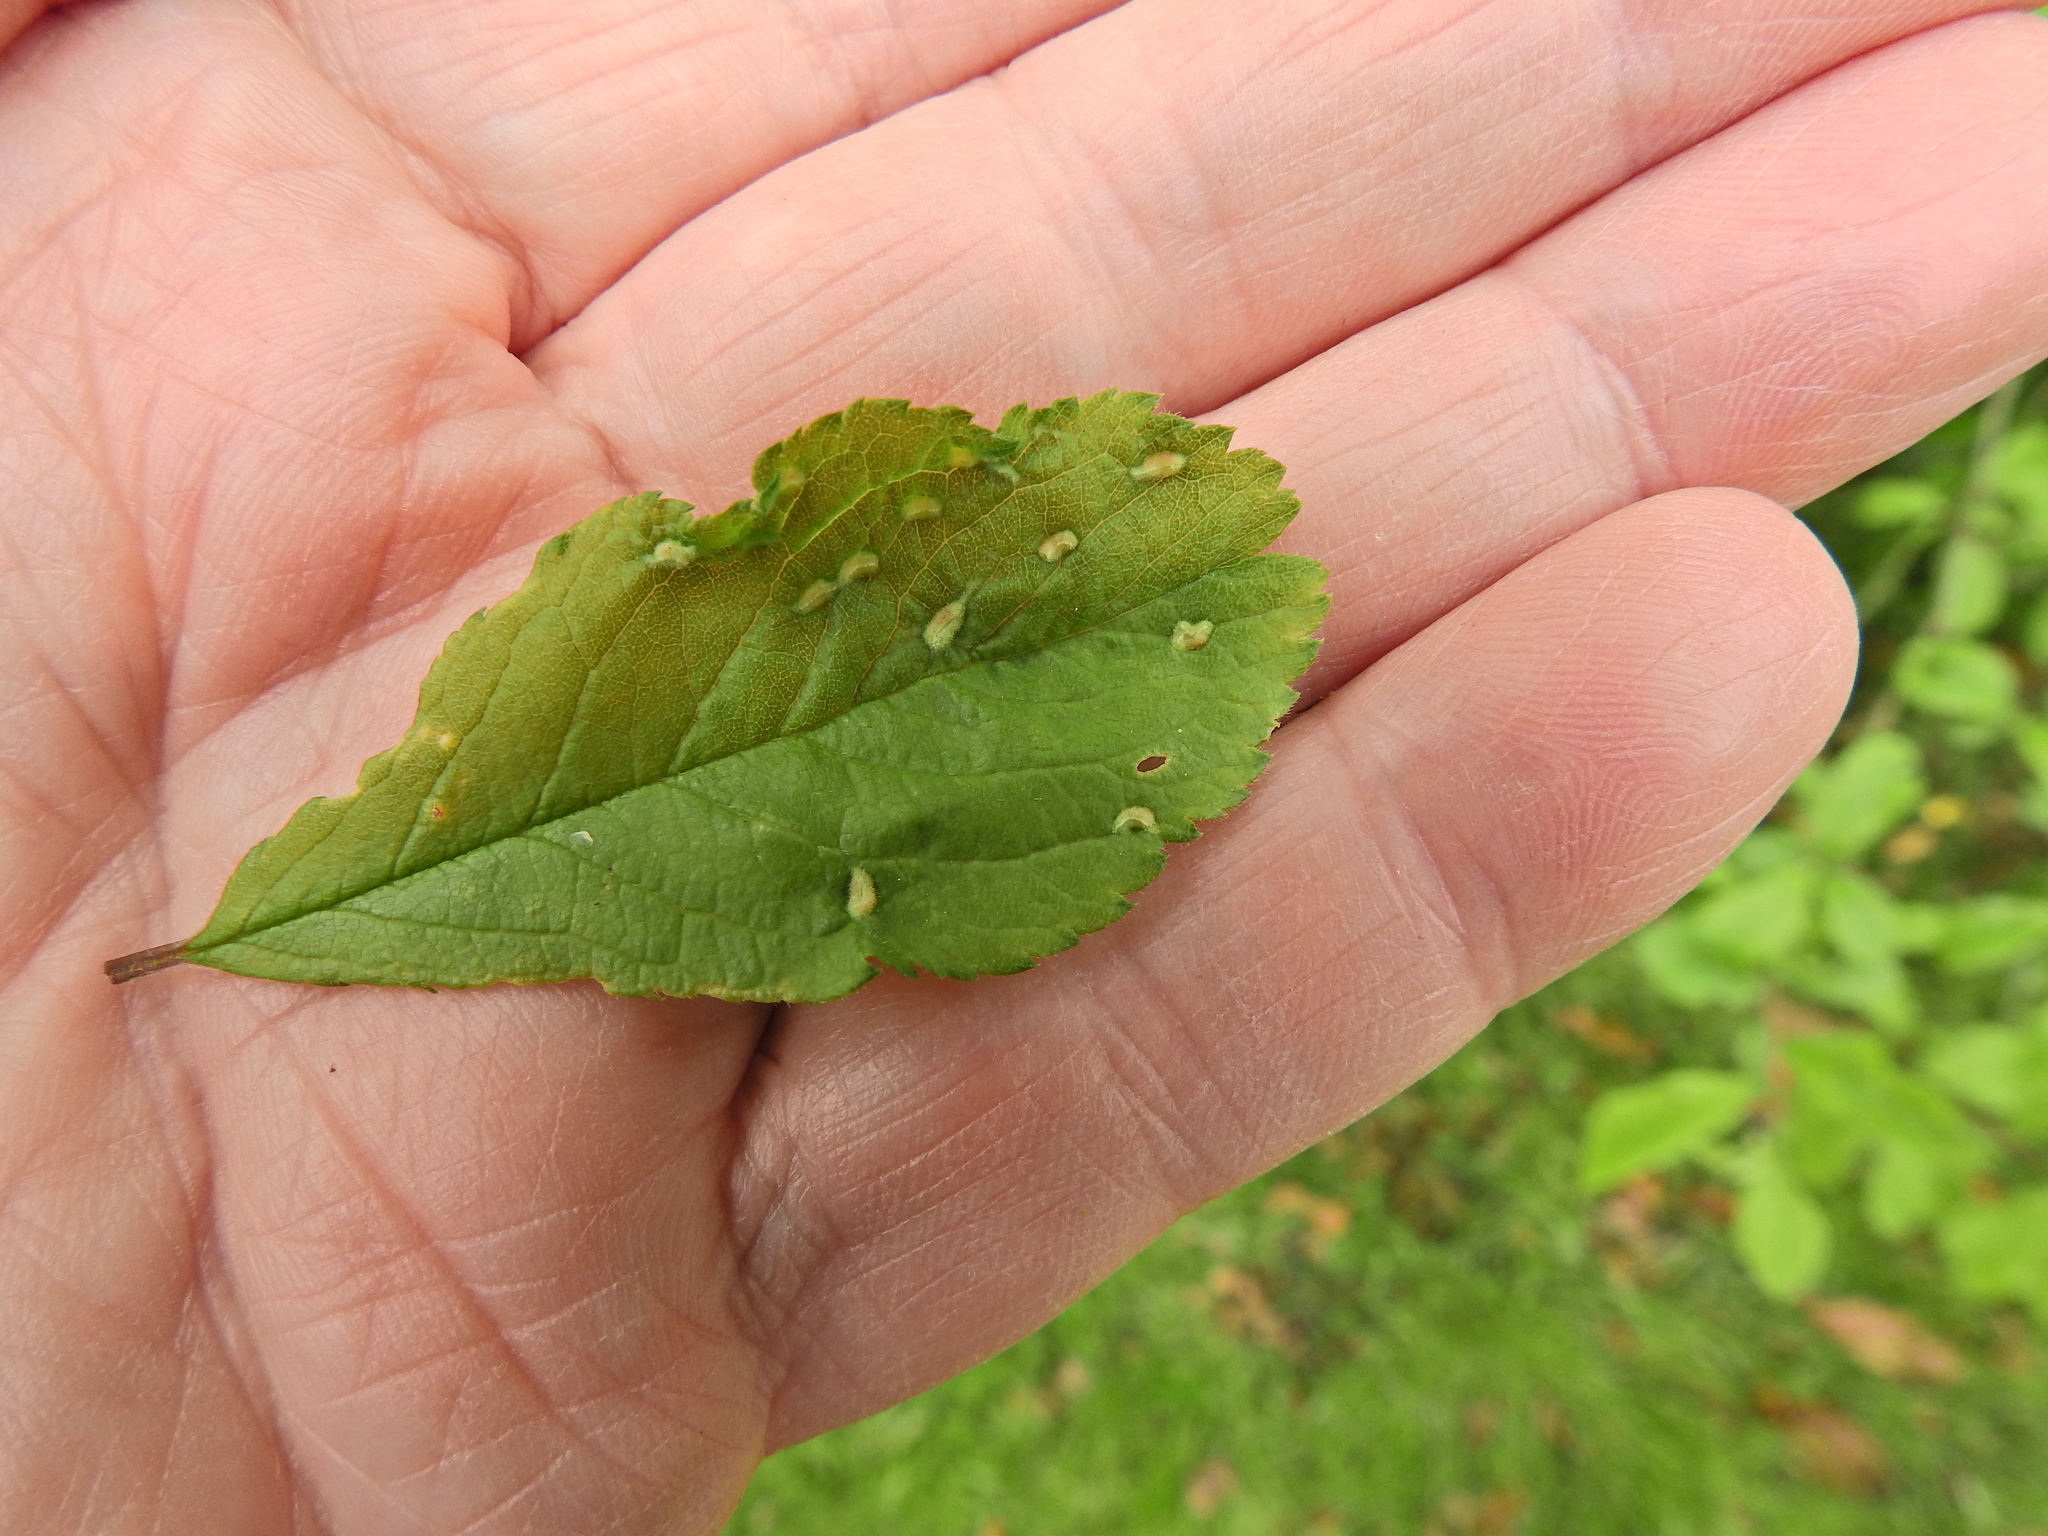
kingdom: Animalia
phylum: Arthropoda
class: Arachnida
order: Trombidiformes
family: Eriophyidae
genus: Eriophyes
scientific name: Eriophyes similis
